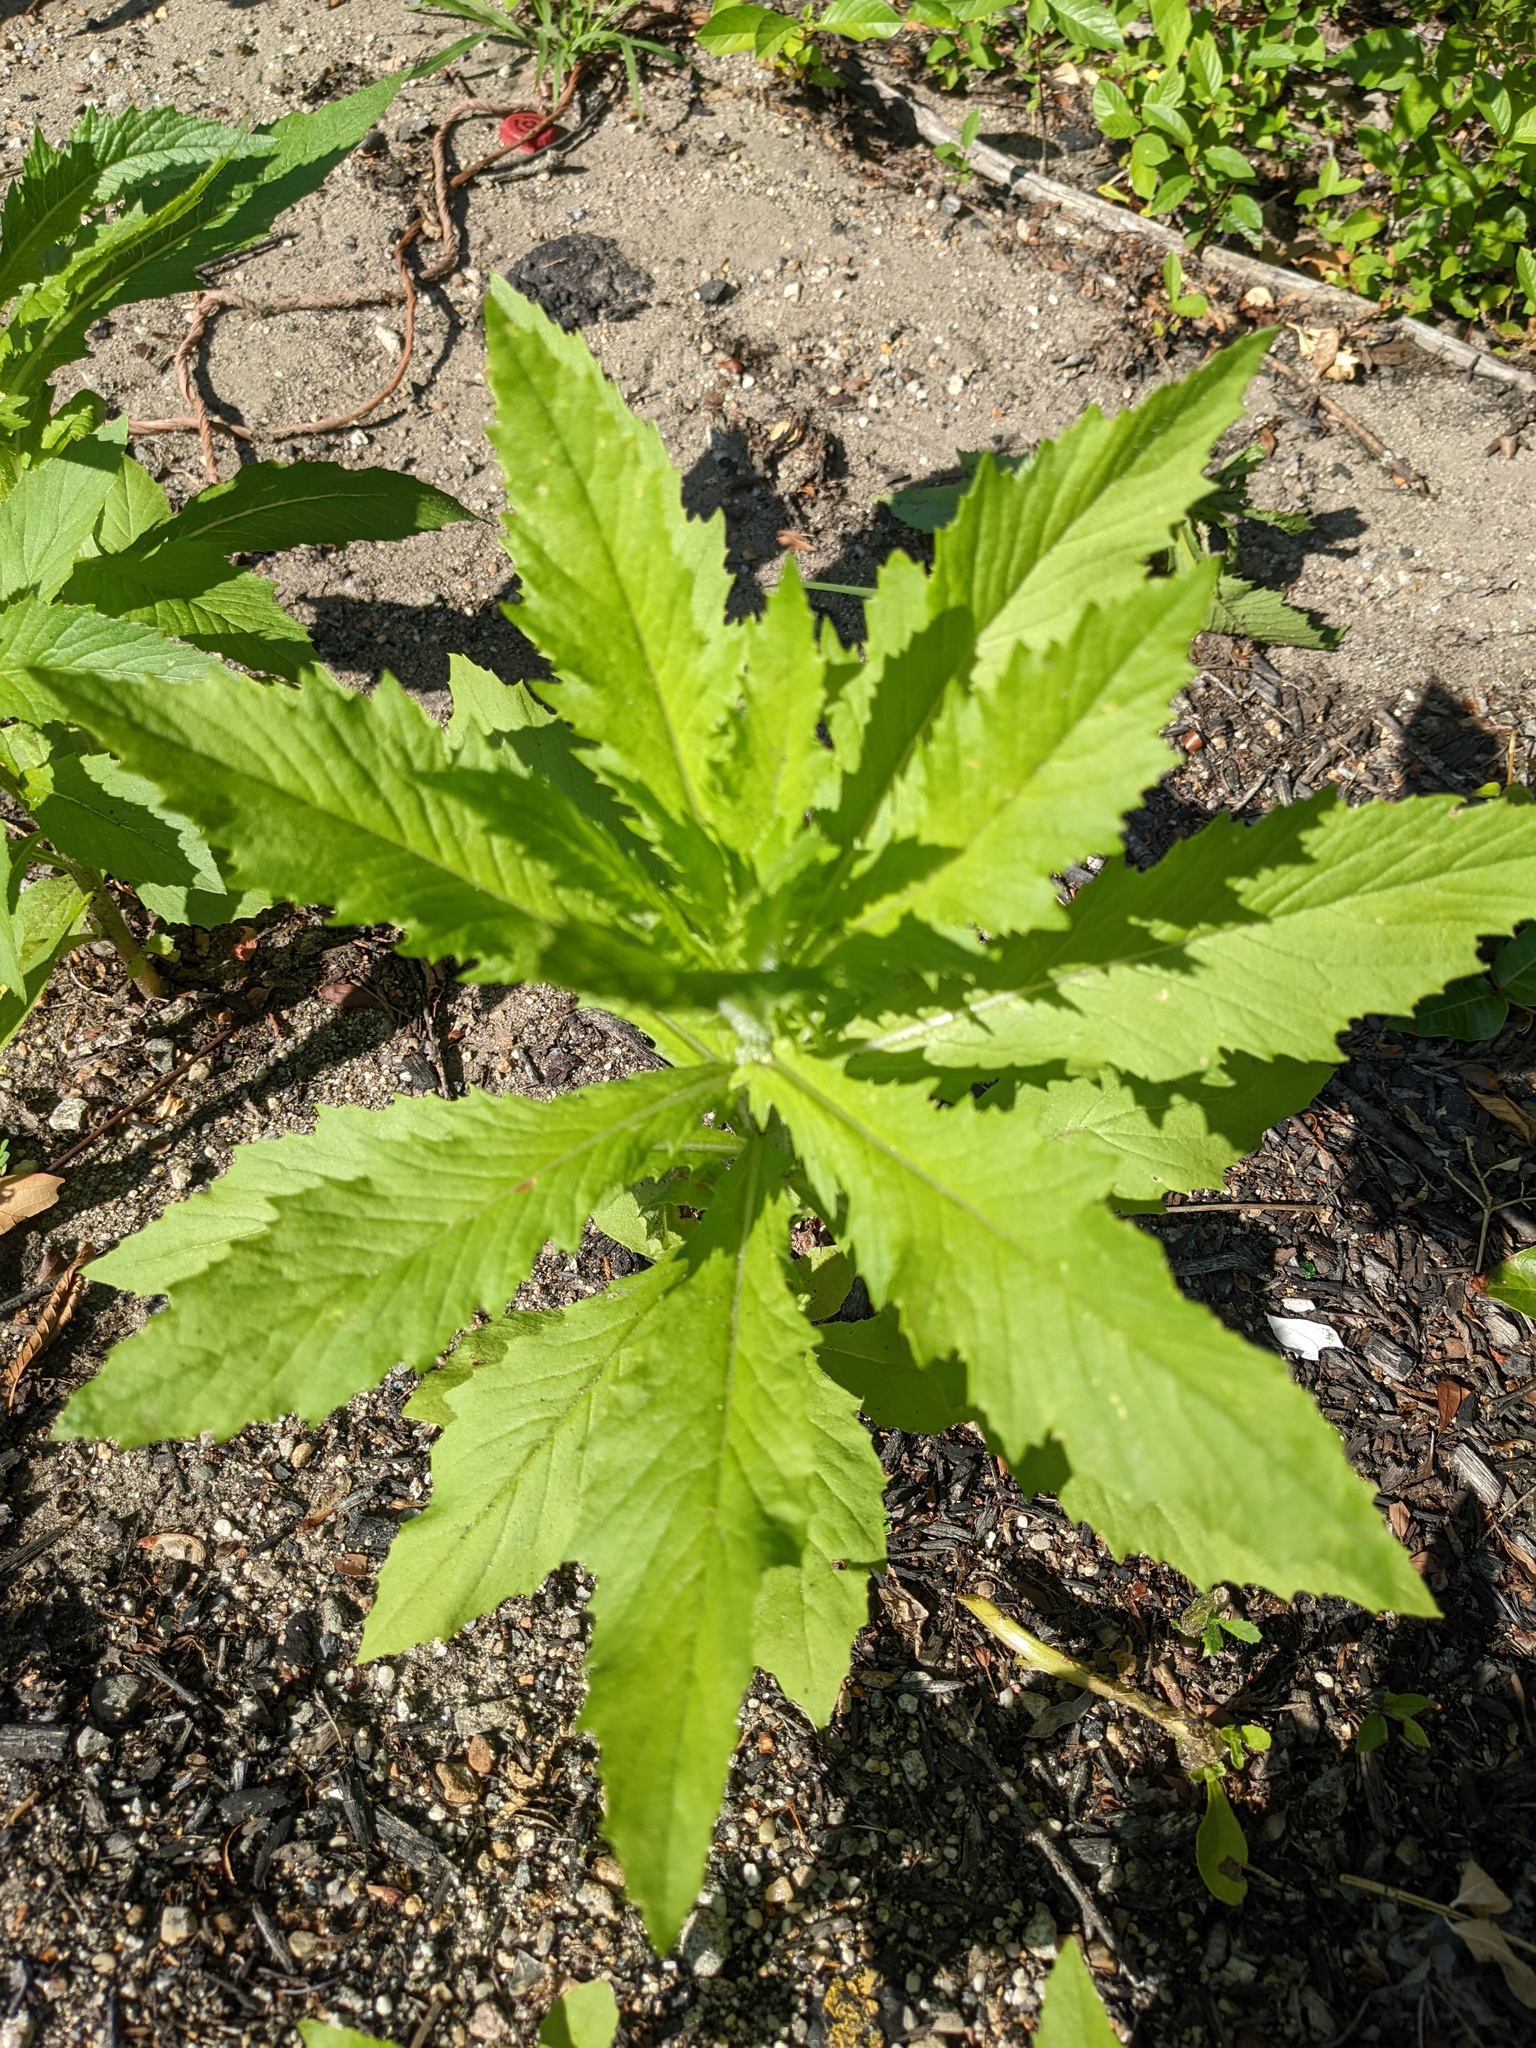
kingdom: Plantae
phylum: Tracheophyta
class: Magnoliopsida
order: Asterales
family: Asteraceae
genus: Erechtites
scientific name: Erechtites hieraciifolius
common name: American burnweed
